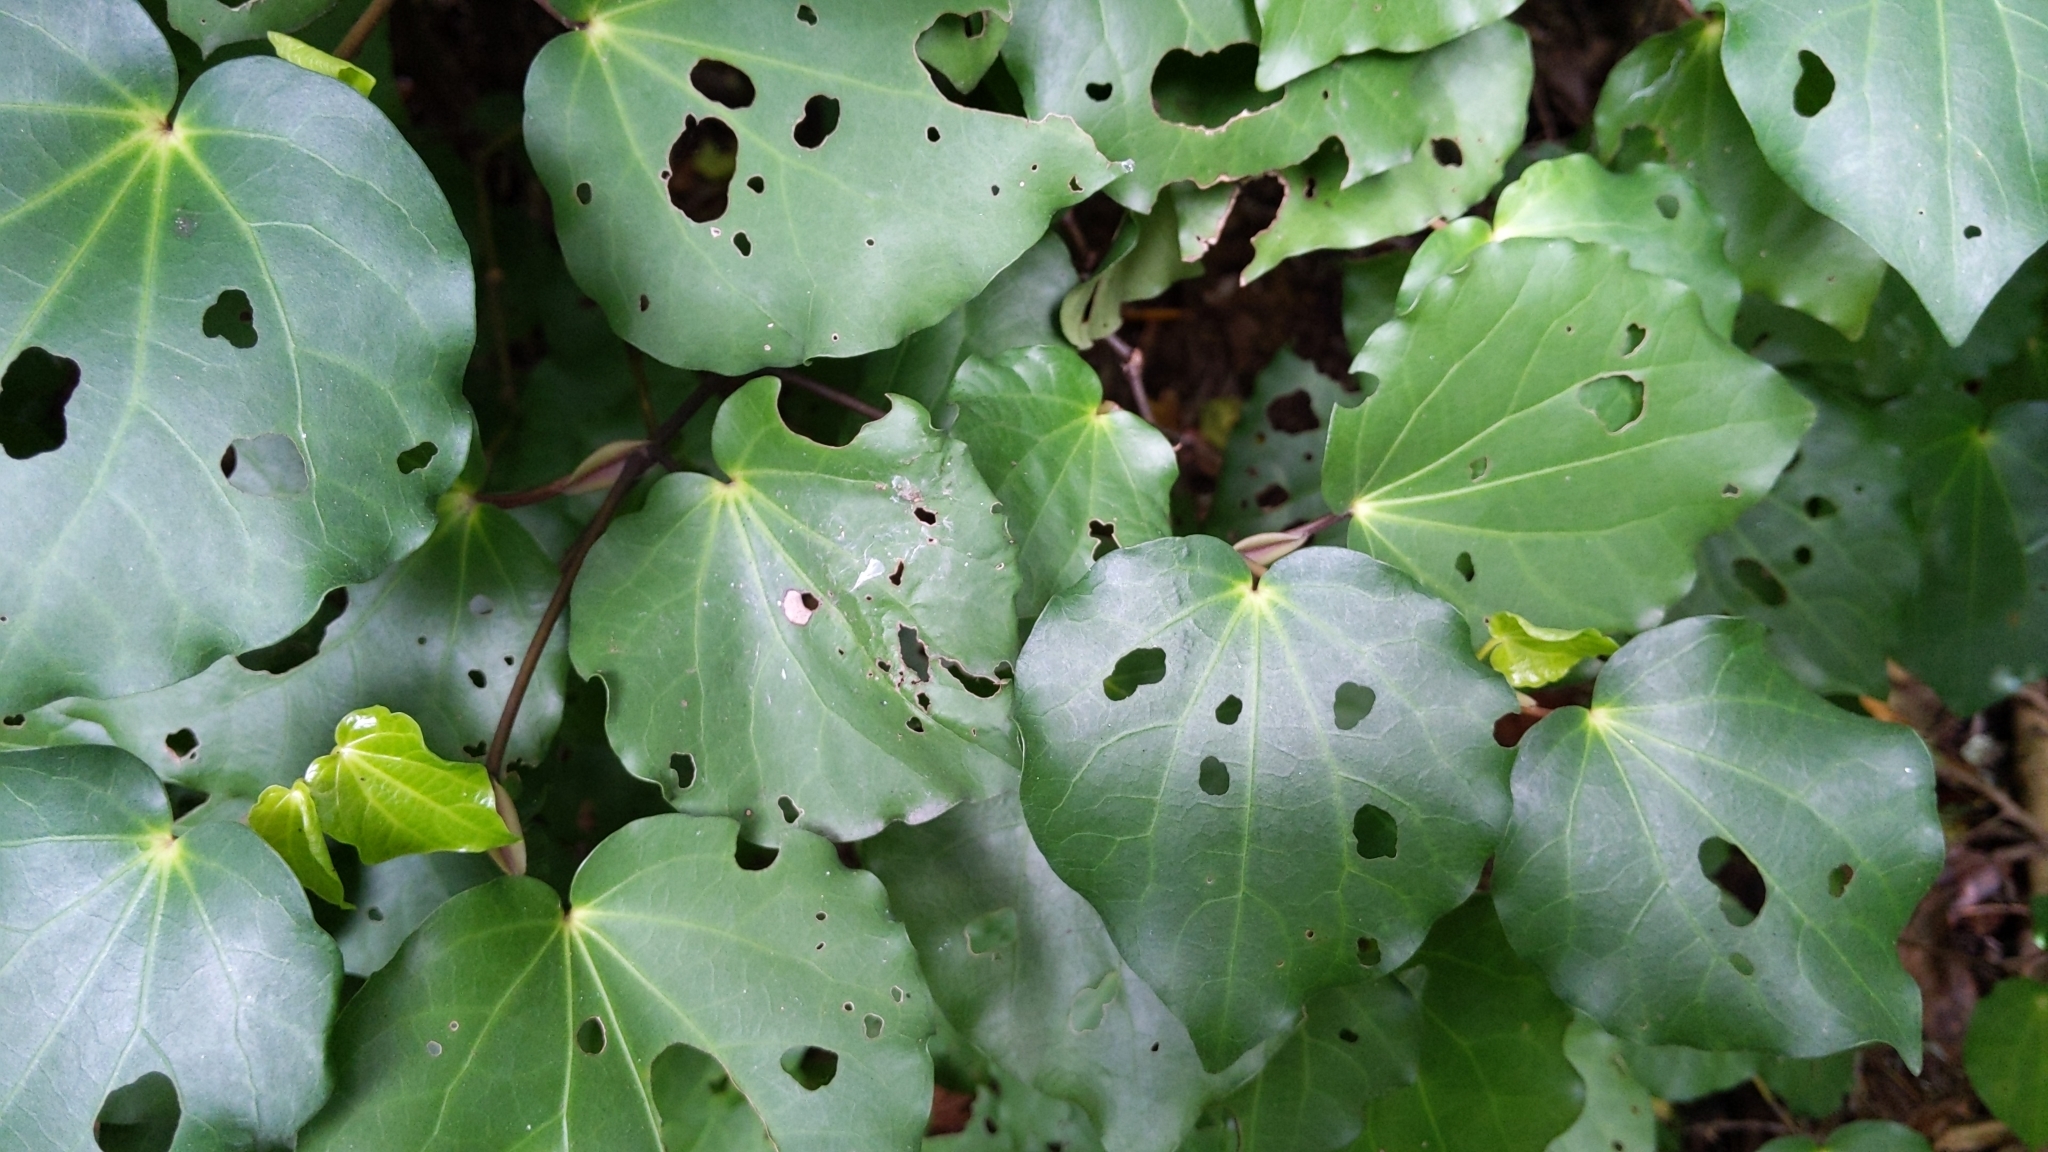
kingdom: Plantae
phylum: Tracheophyta
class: Magnoliopsida
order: Piperales
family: Piperaceae
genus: Macropiper
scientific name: Macropiper excelsum
